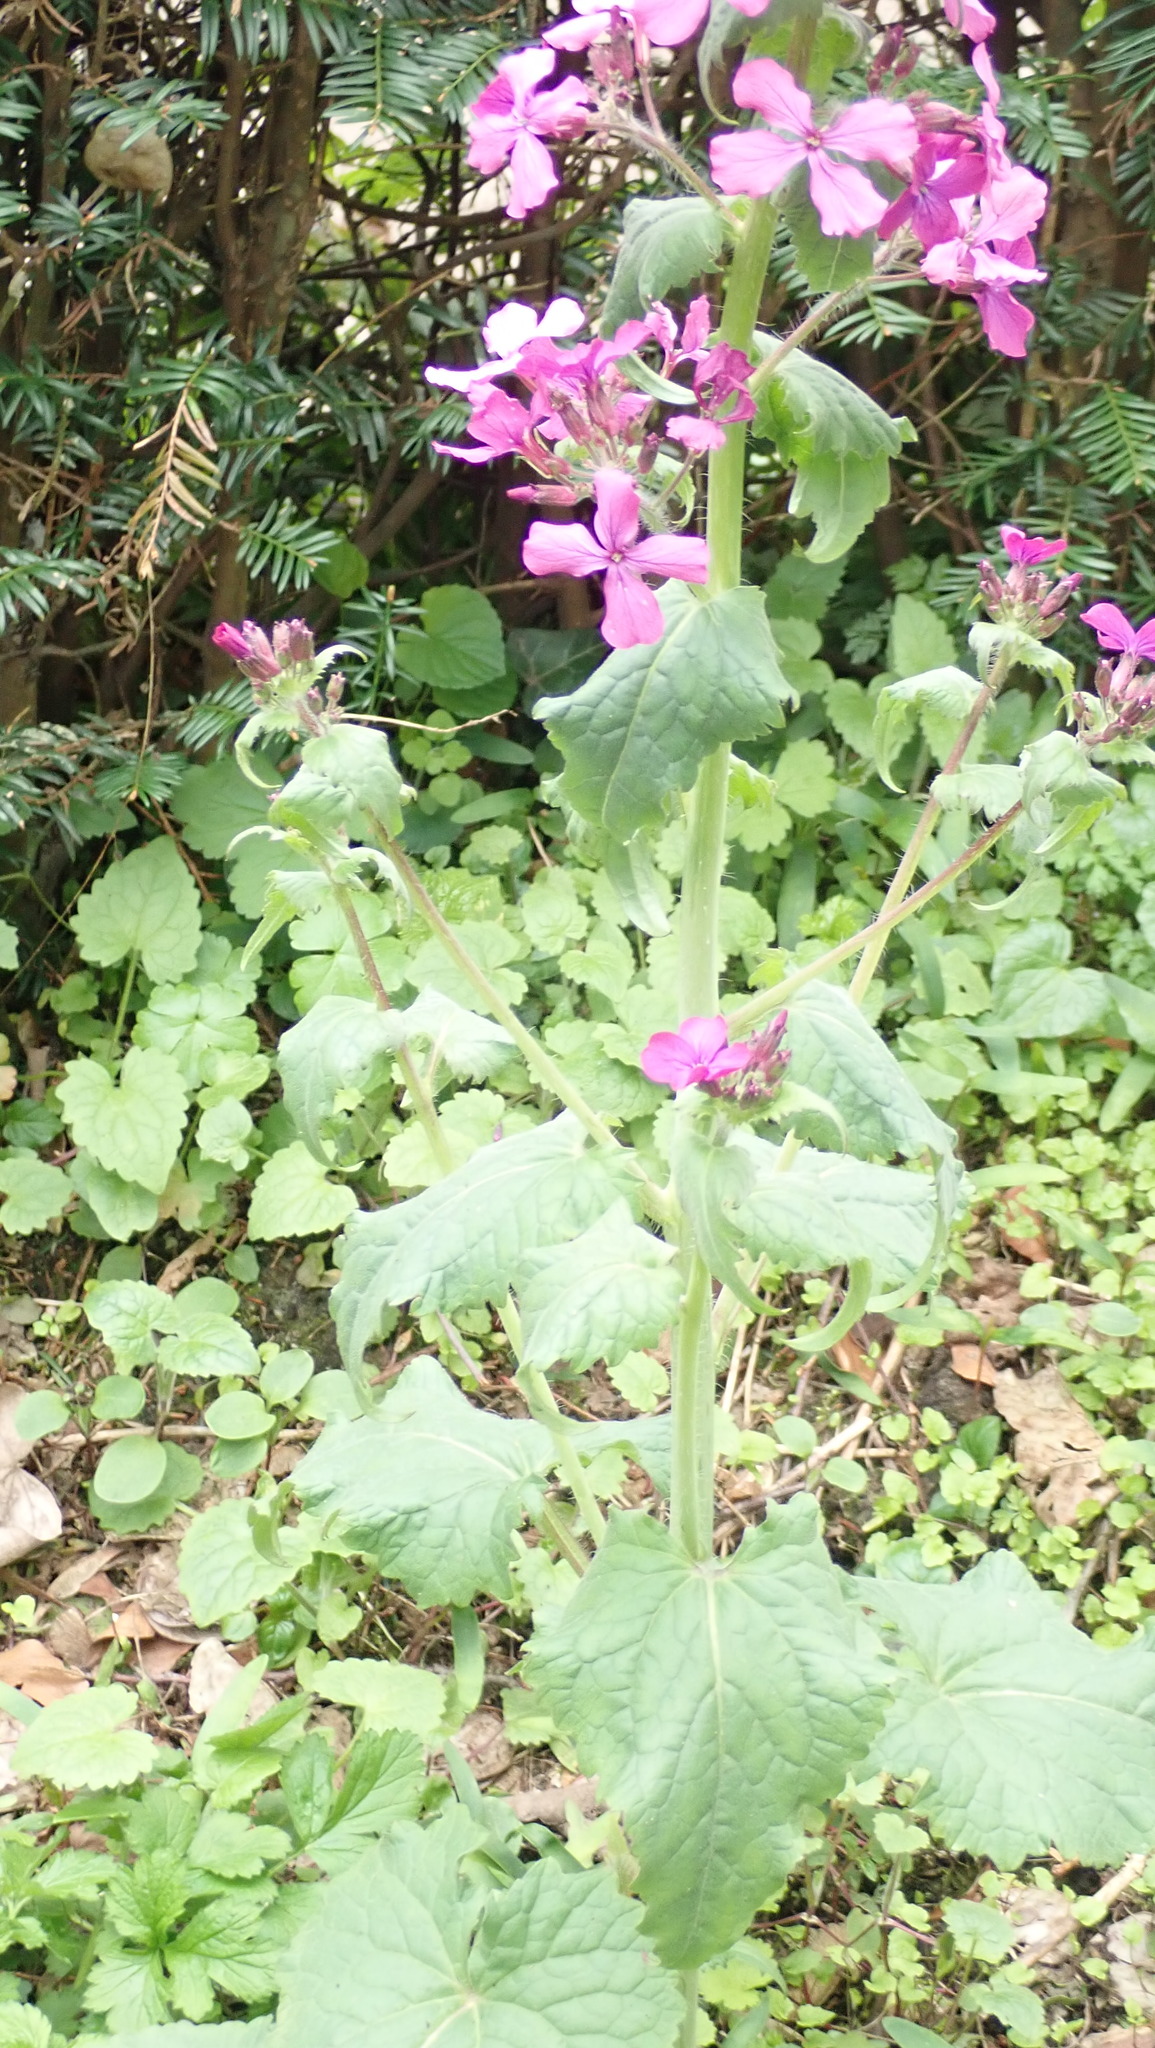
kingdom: Plantae
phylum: Tracheophyta
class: Magnoliopsida
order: Brassicales
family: Brassicaceae
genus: Lunaria
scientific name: Lunaria annua
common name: Honesty
